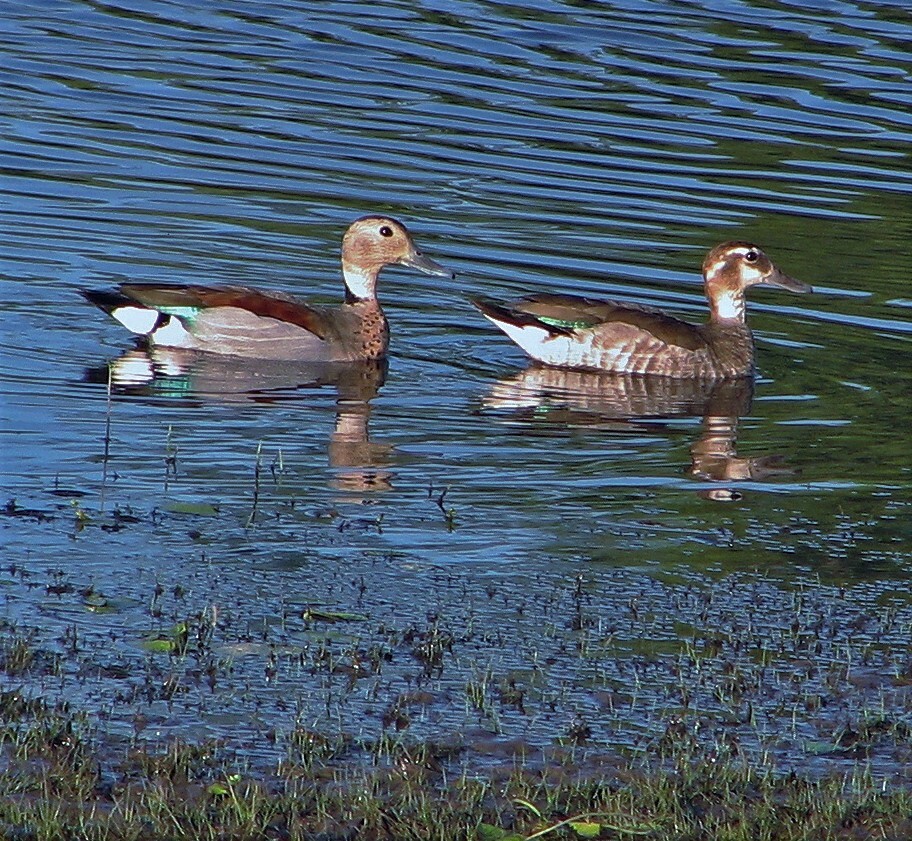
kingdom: Animalia
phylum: Chordata
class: Aves
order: Anseriformes
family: Anatidae
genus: Callonetta
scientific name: Callonetta leucophrys
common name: Ringed teal
